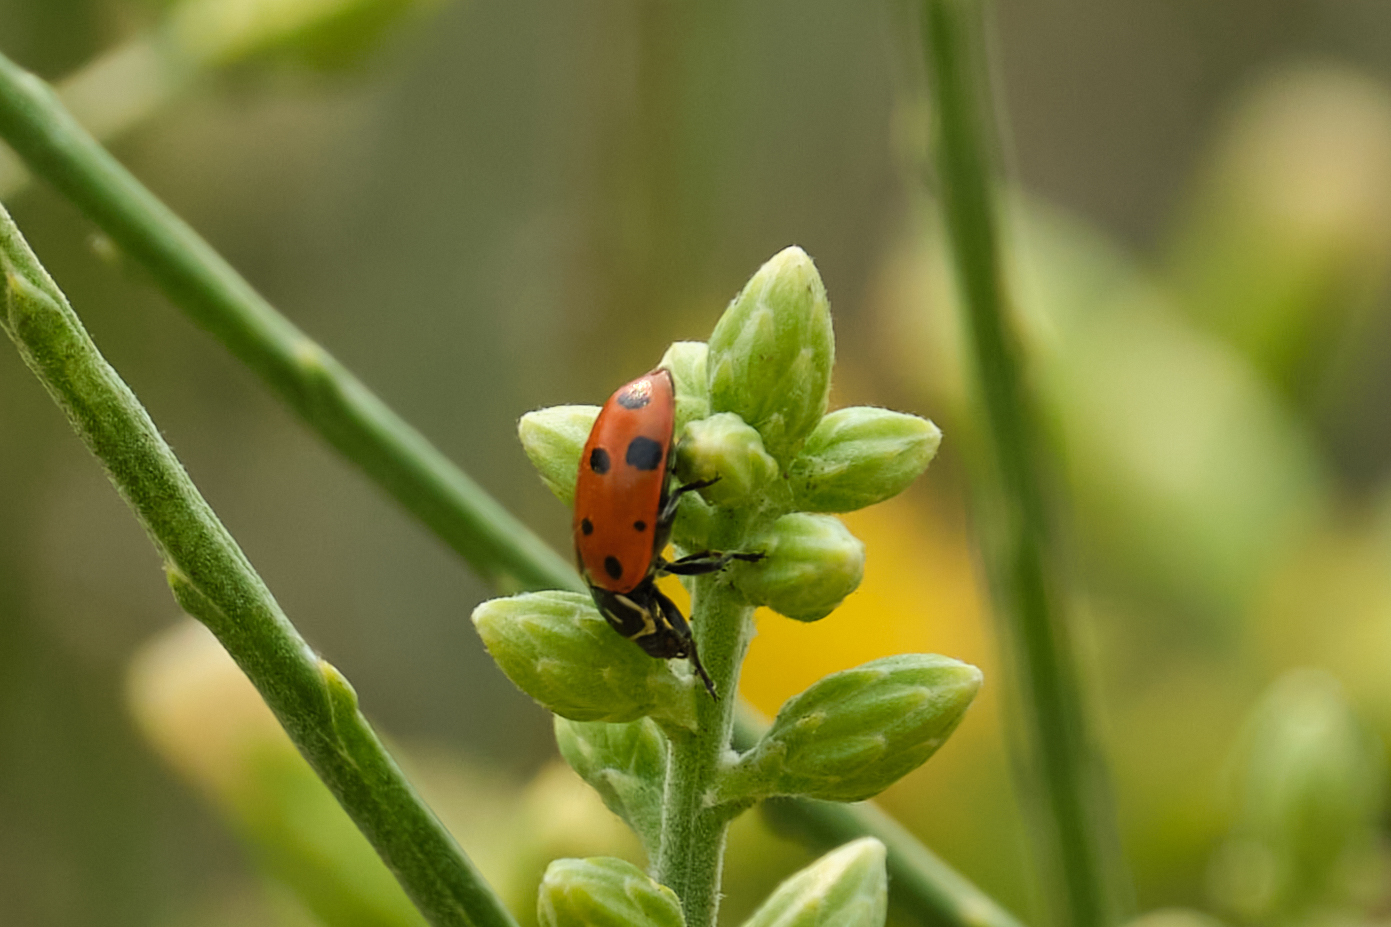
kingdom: Animalia
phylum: Arthropoda
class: Insecta
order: Coleoptera
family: Coccinellidae
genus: Hippodamia
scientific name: Hippodamia convergens
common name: Convergent lady beetle
